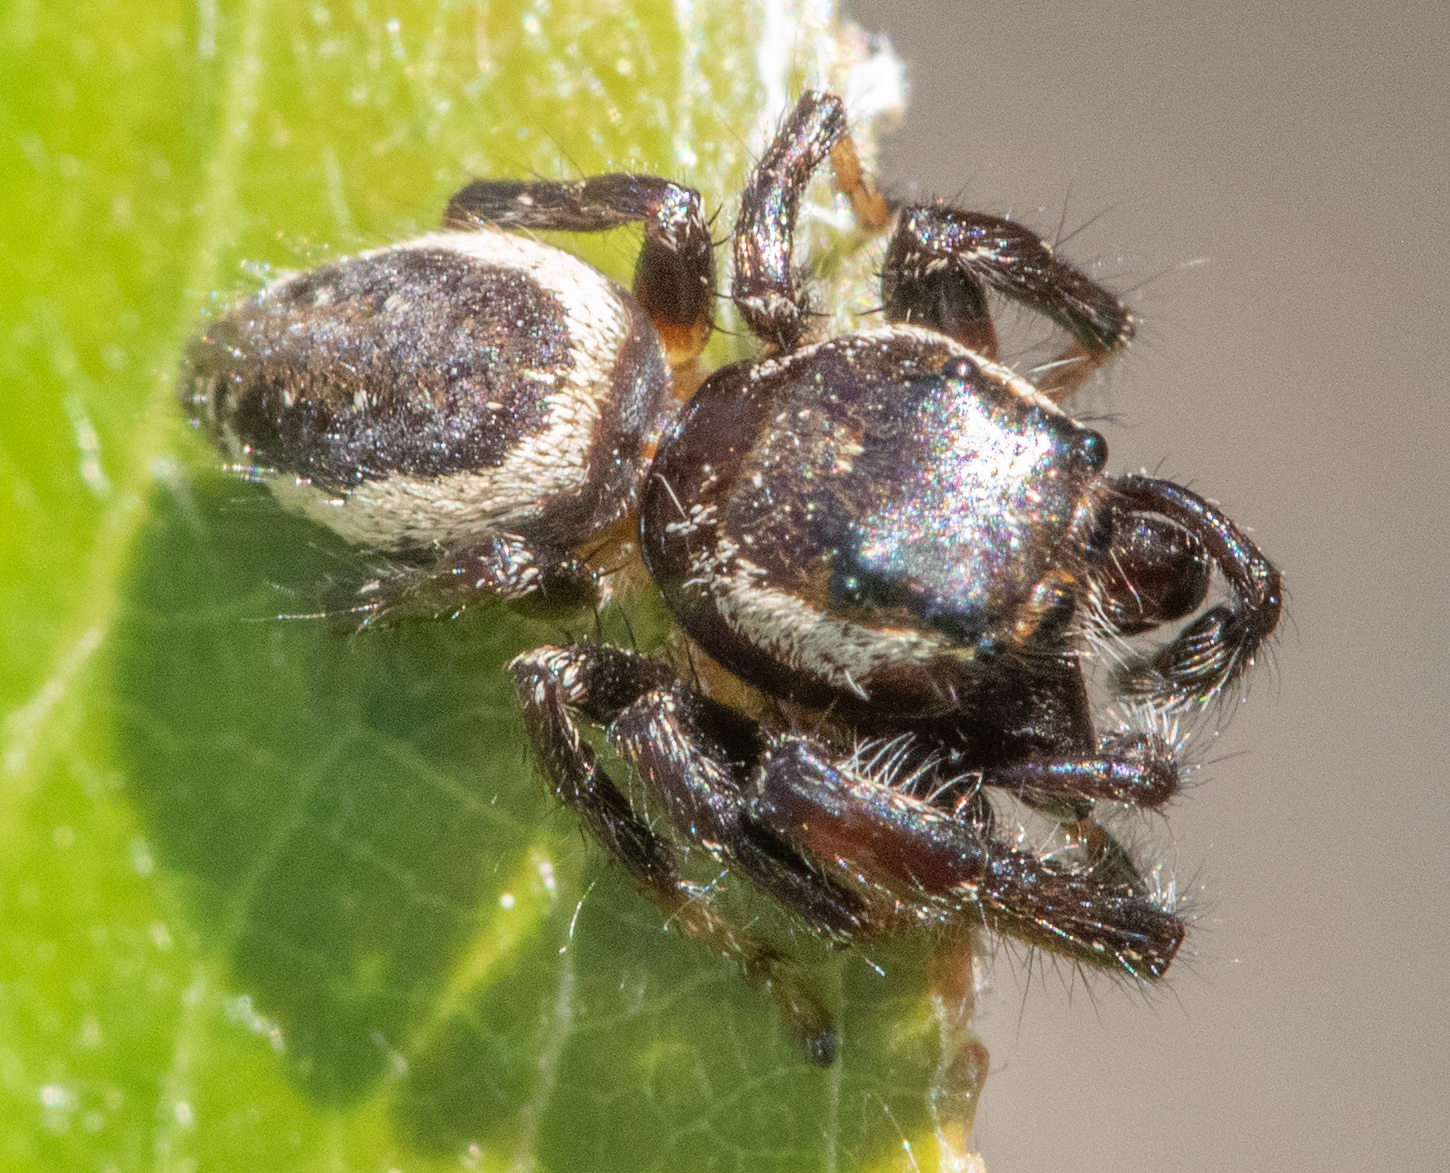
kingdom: Animalia
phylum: Arthropoda
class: Arachnida
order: Araneae
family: Salticidae
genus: Eris
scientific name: Eris militaris
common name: Bronze jumper
